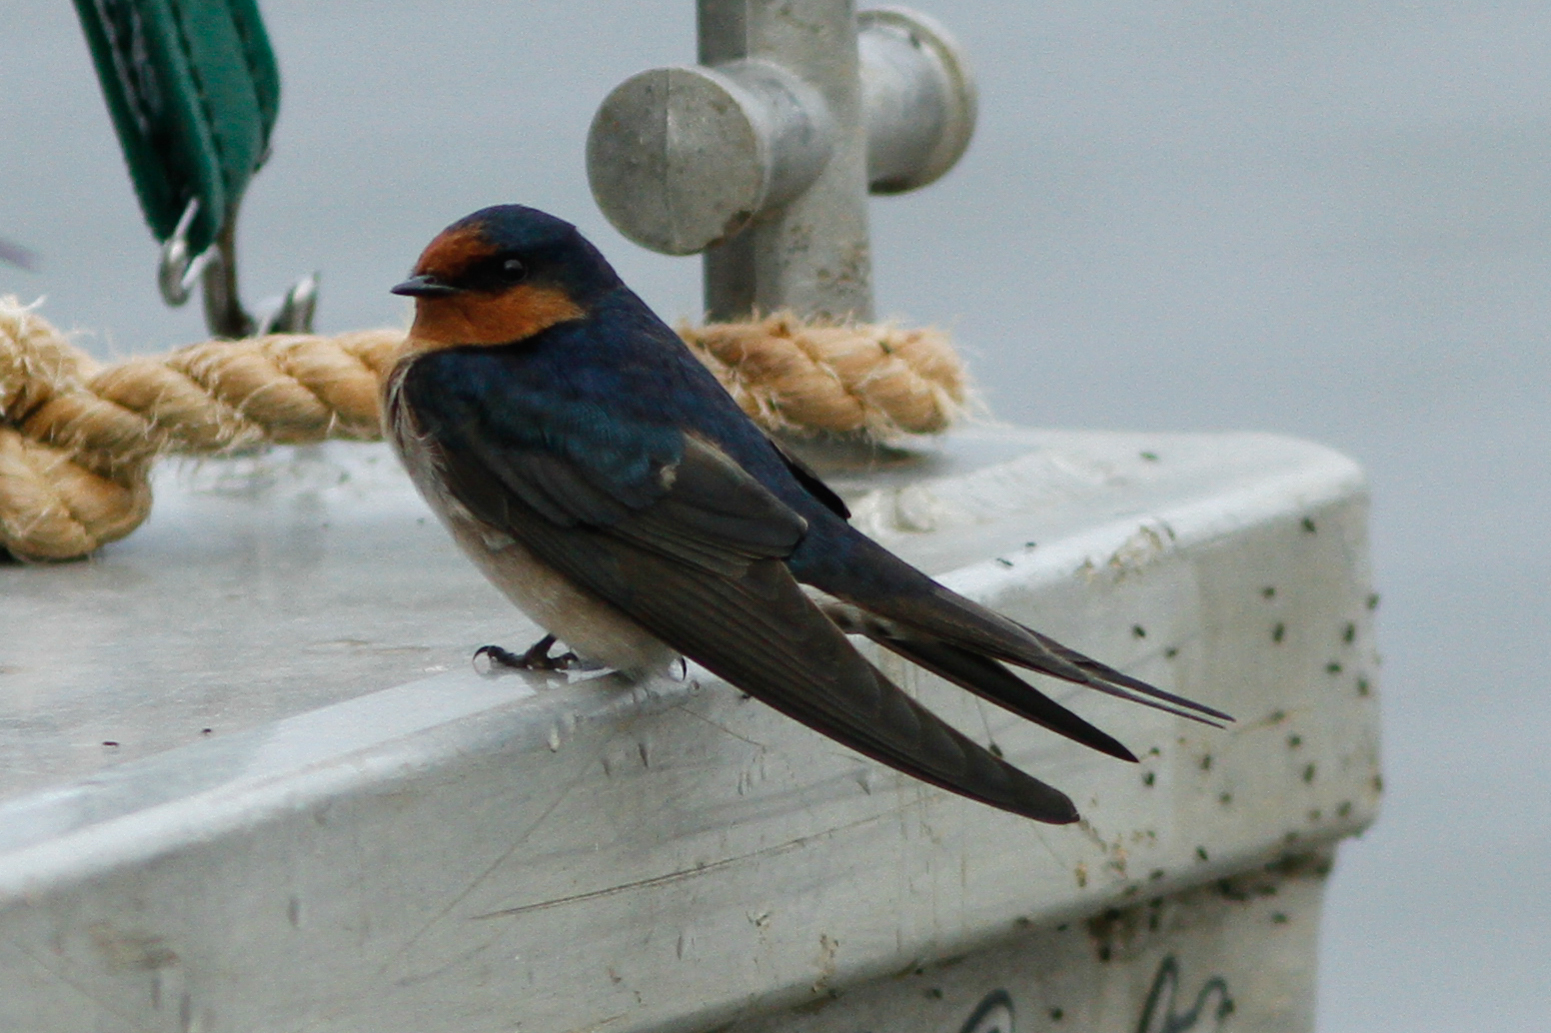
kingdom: Animalia
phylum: Chordata
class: Aves
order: Passeriformes
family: Hirundinidae
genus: Hirundo
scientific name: Hirundo neoxena
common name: Welcome swallow
